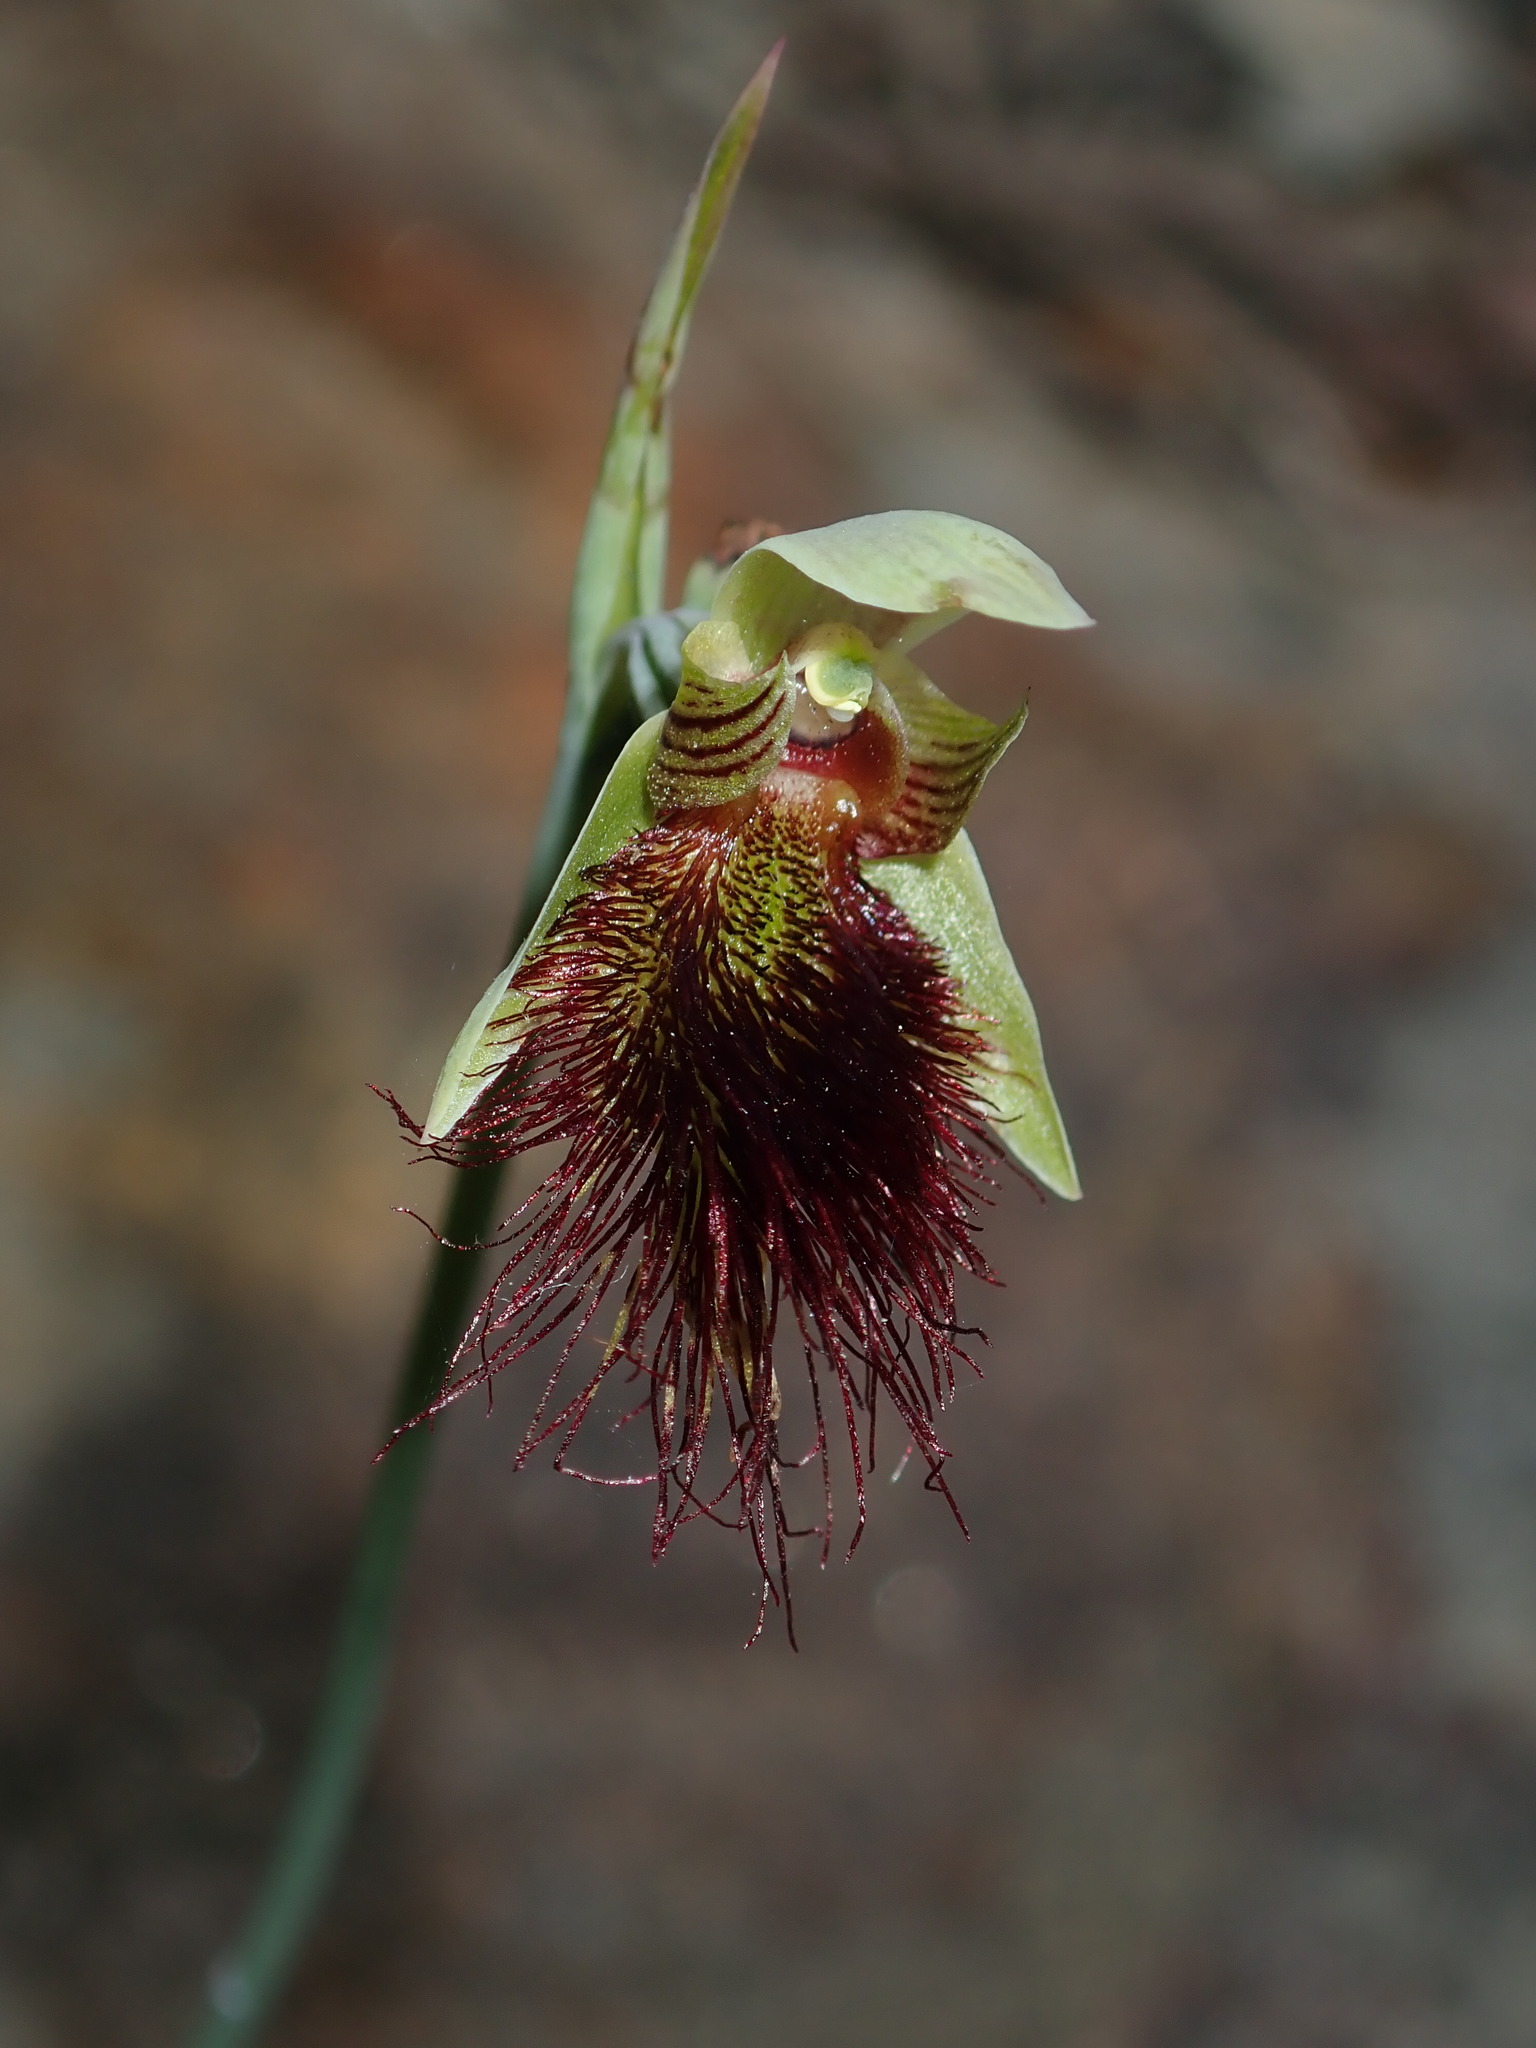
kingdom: Plantae
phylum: Tracheophyta
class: Liliopsida
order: Asparagales
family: Orchidaceae
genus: Calochilus
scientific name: Calochilus paludosus
